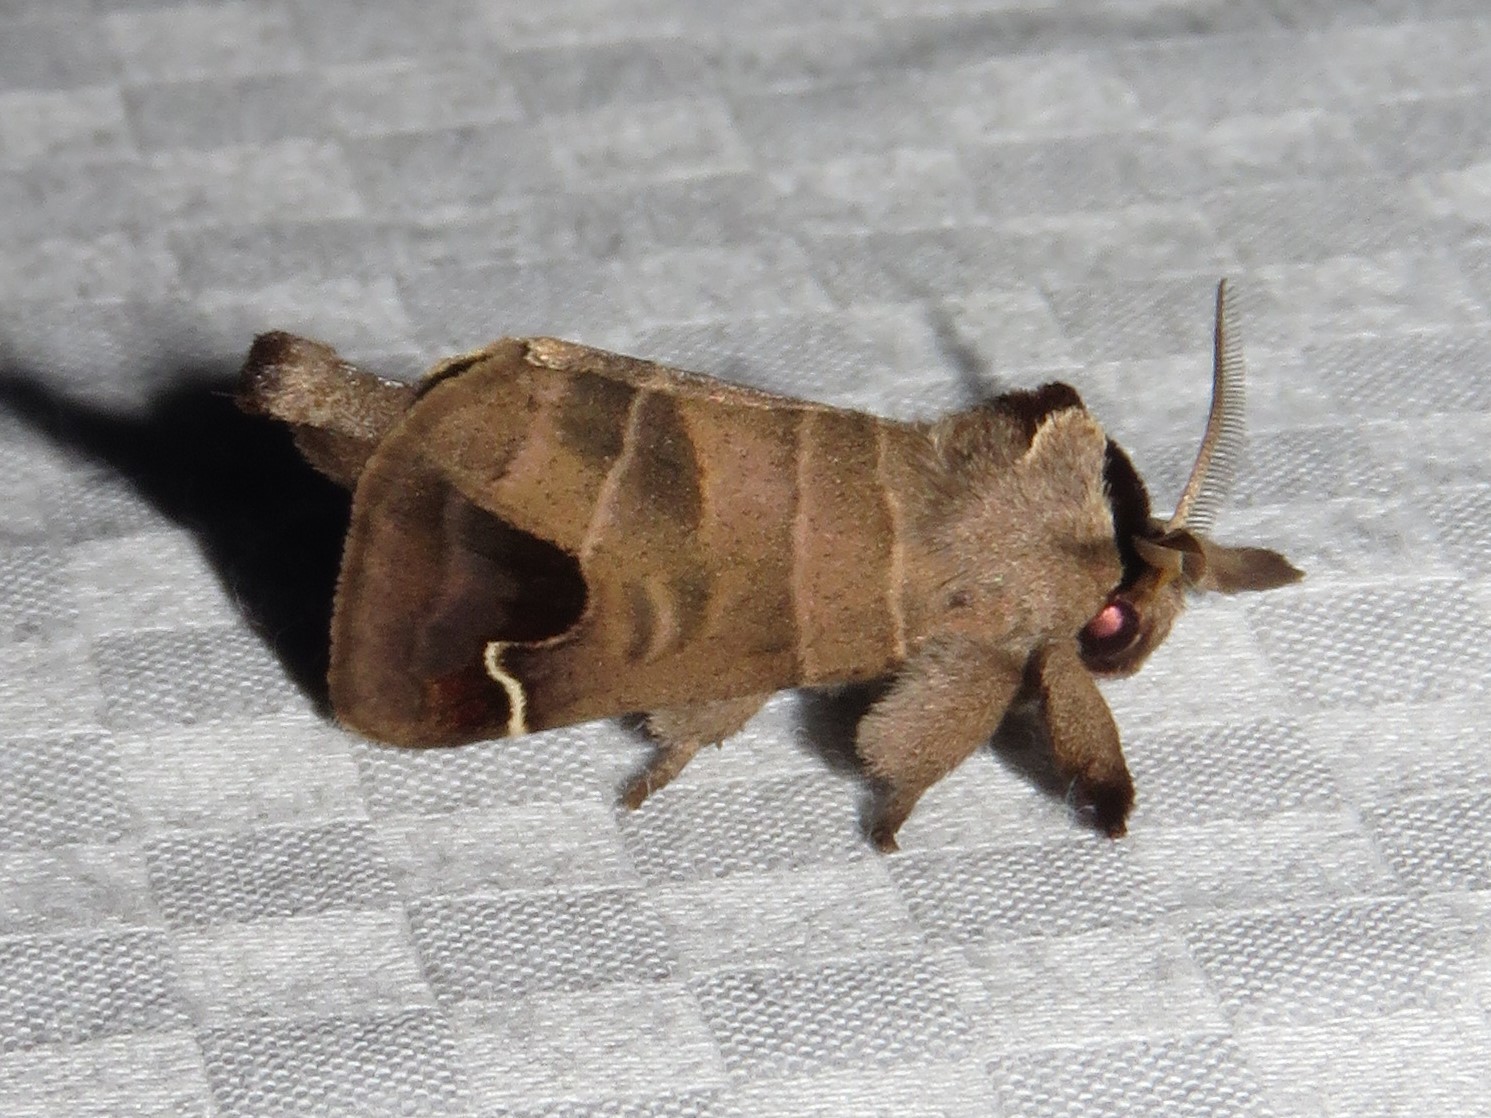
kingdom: Animalia
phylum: Arthropoda
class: Insecta
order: Lepidoptera
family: Notodontidae
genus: Clostera
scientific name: Clostera albosigma
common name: Sigmoid prominent
